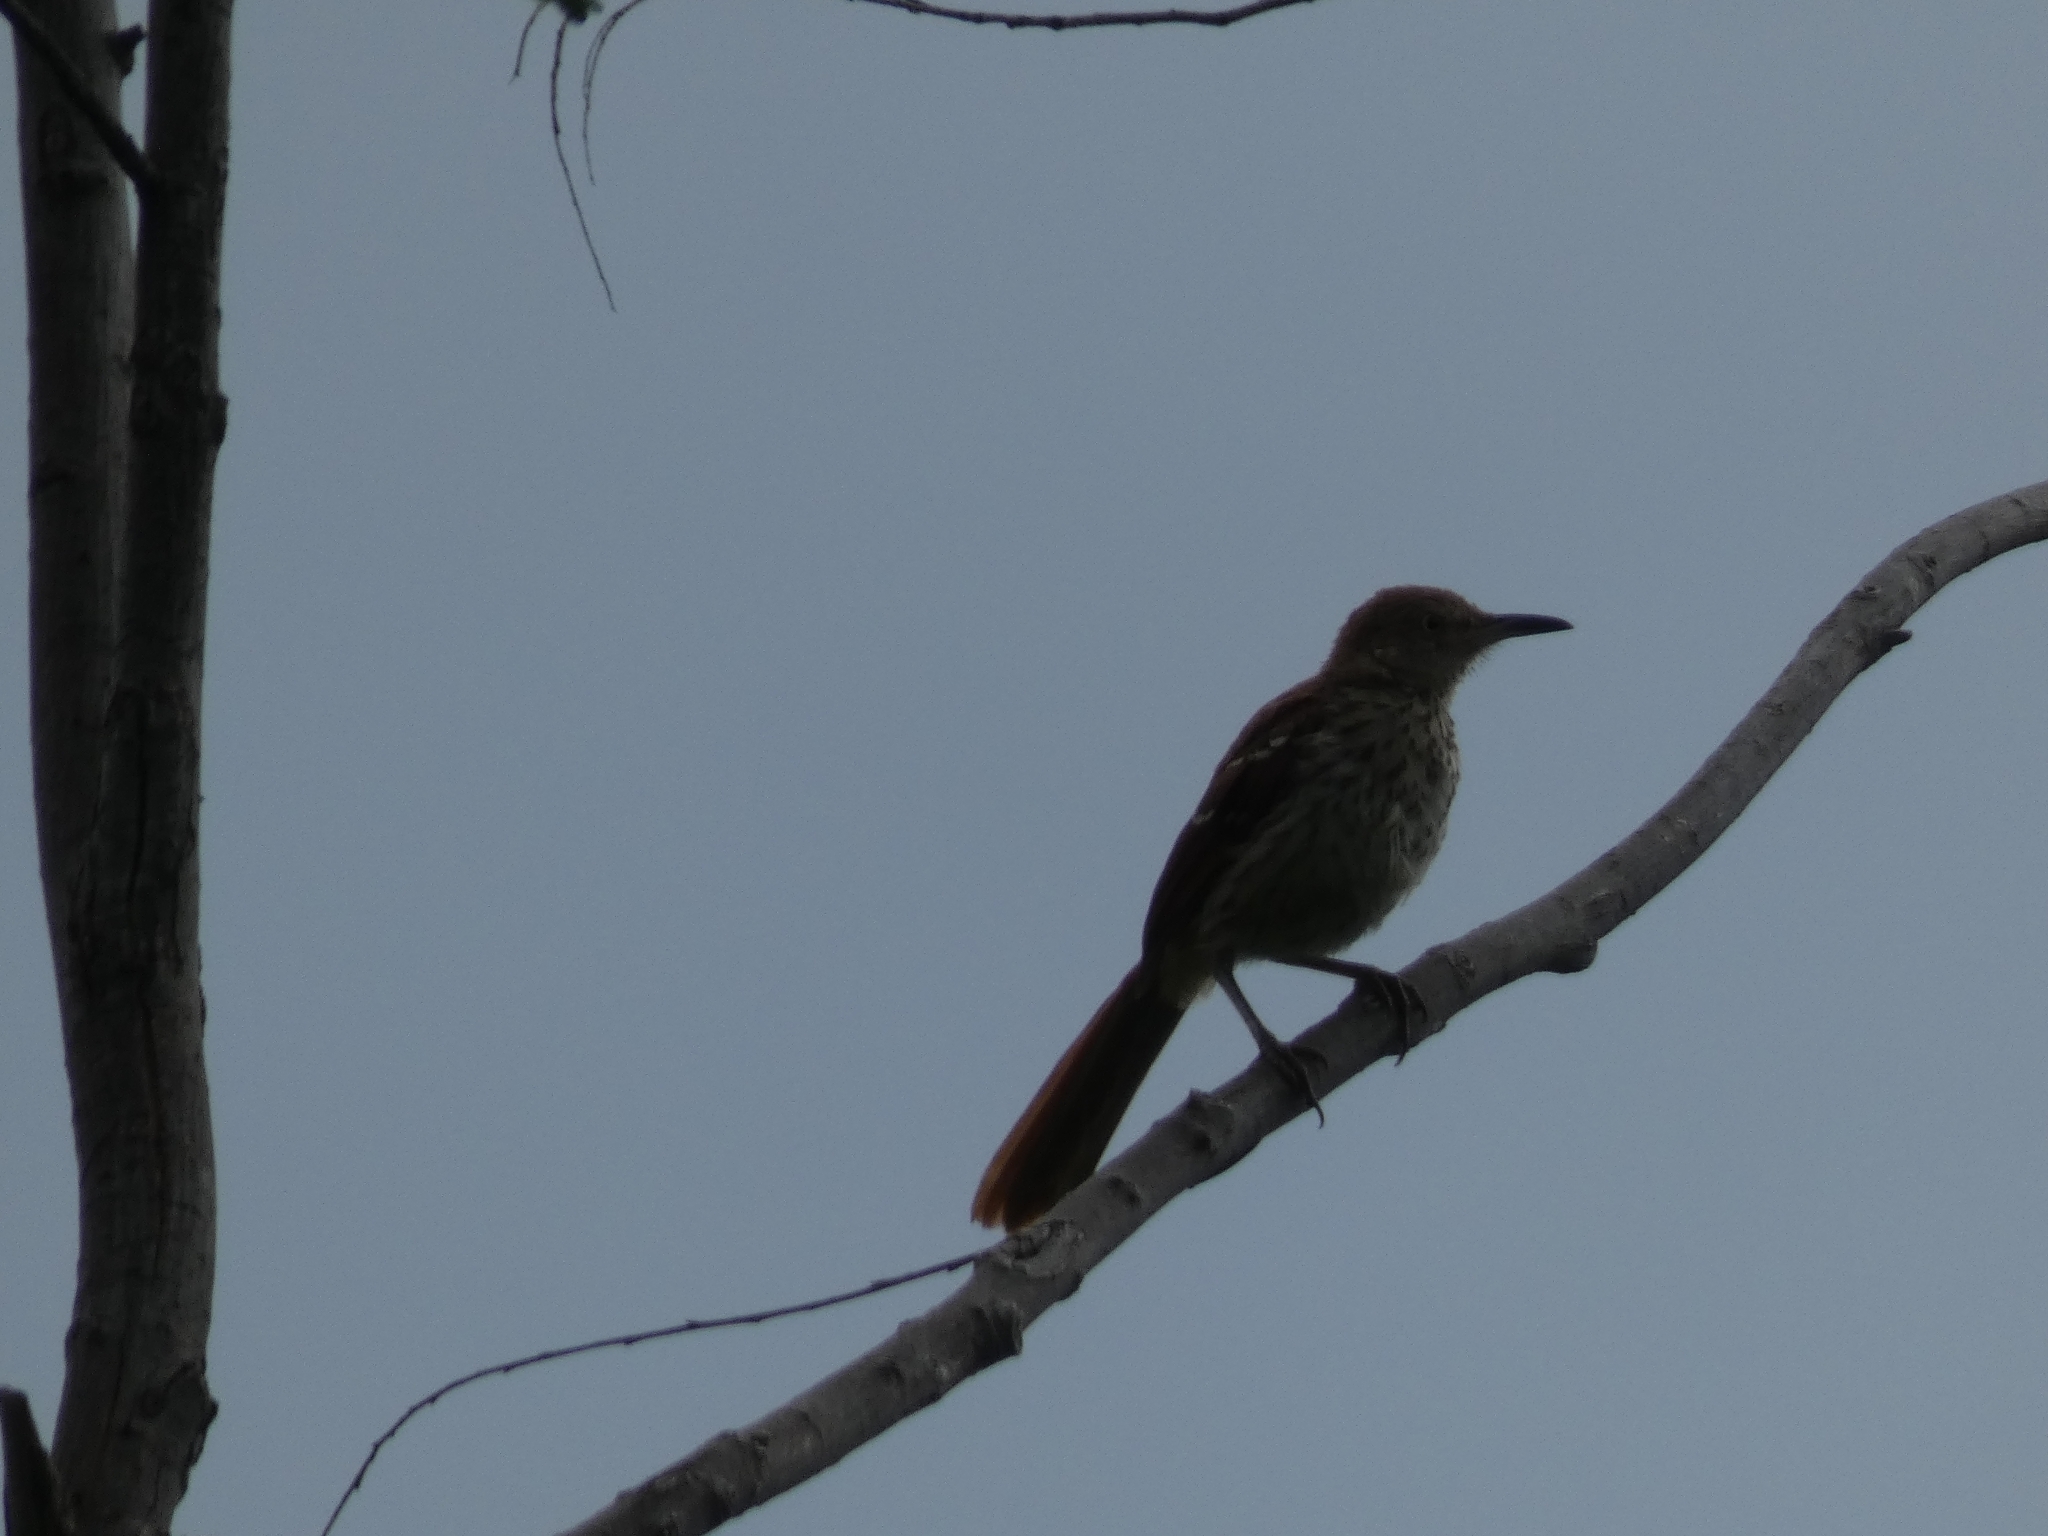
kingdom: Animalia
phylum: Chordata
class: Aves
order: Passeriformes
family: Mimidae
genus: Toxostoma
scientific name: Toxostoma rufum
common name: Brown thrasher
